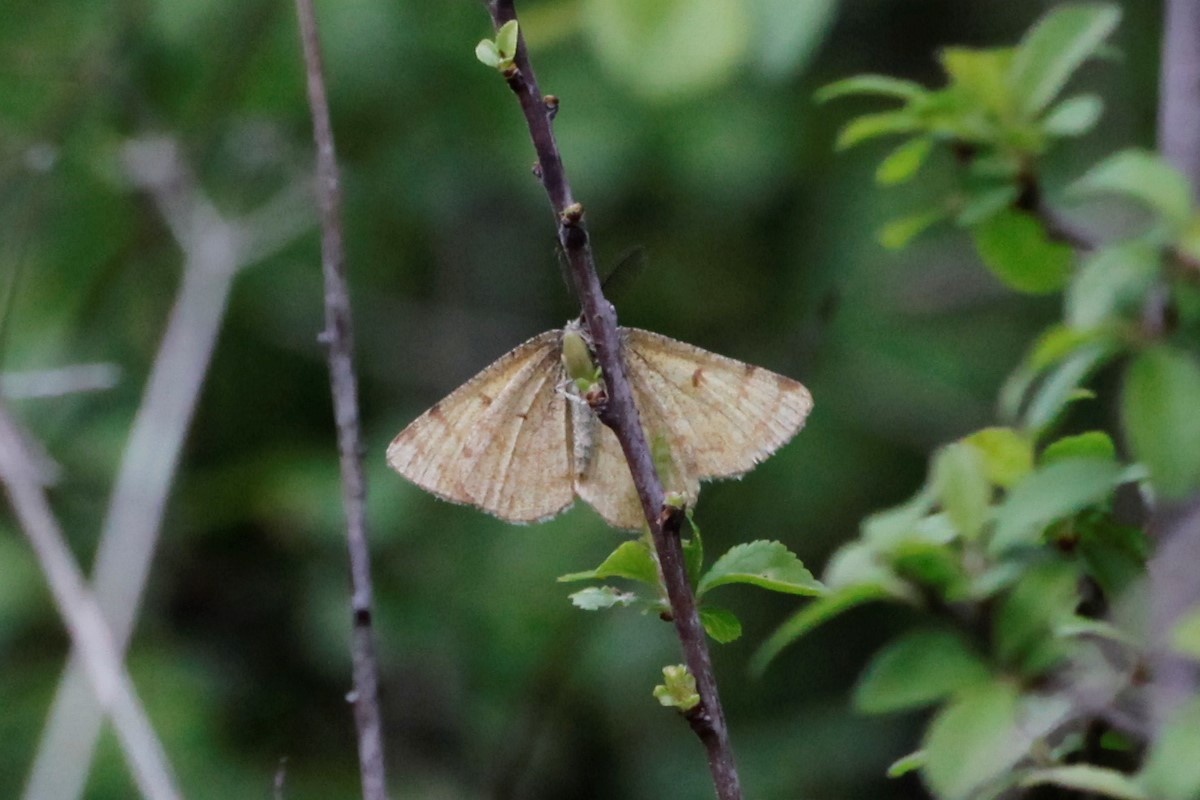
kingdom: Animalia
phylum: Arthropoda
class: Insecta
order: Lepidoptera
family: Geometridae
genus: Ematurga
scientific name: Ematurga atomaria
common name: Common heath
